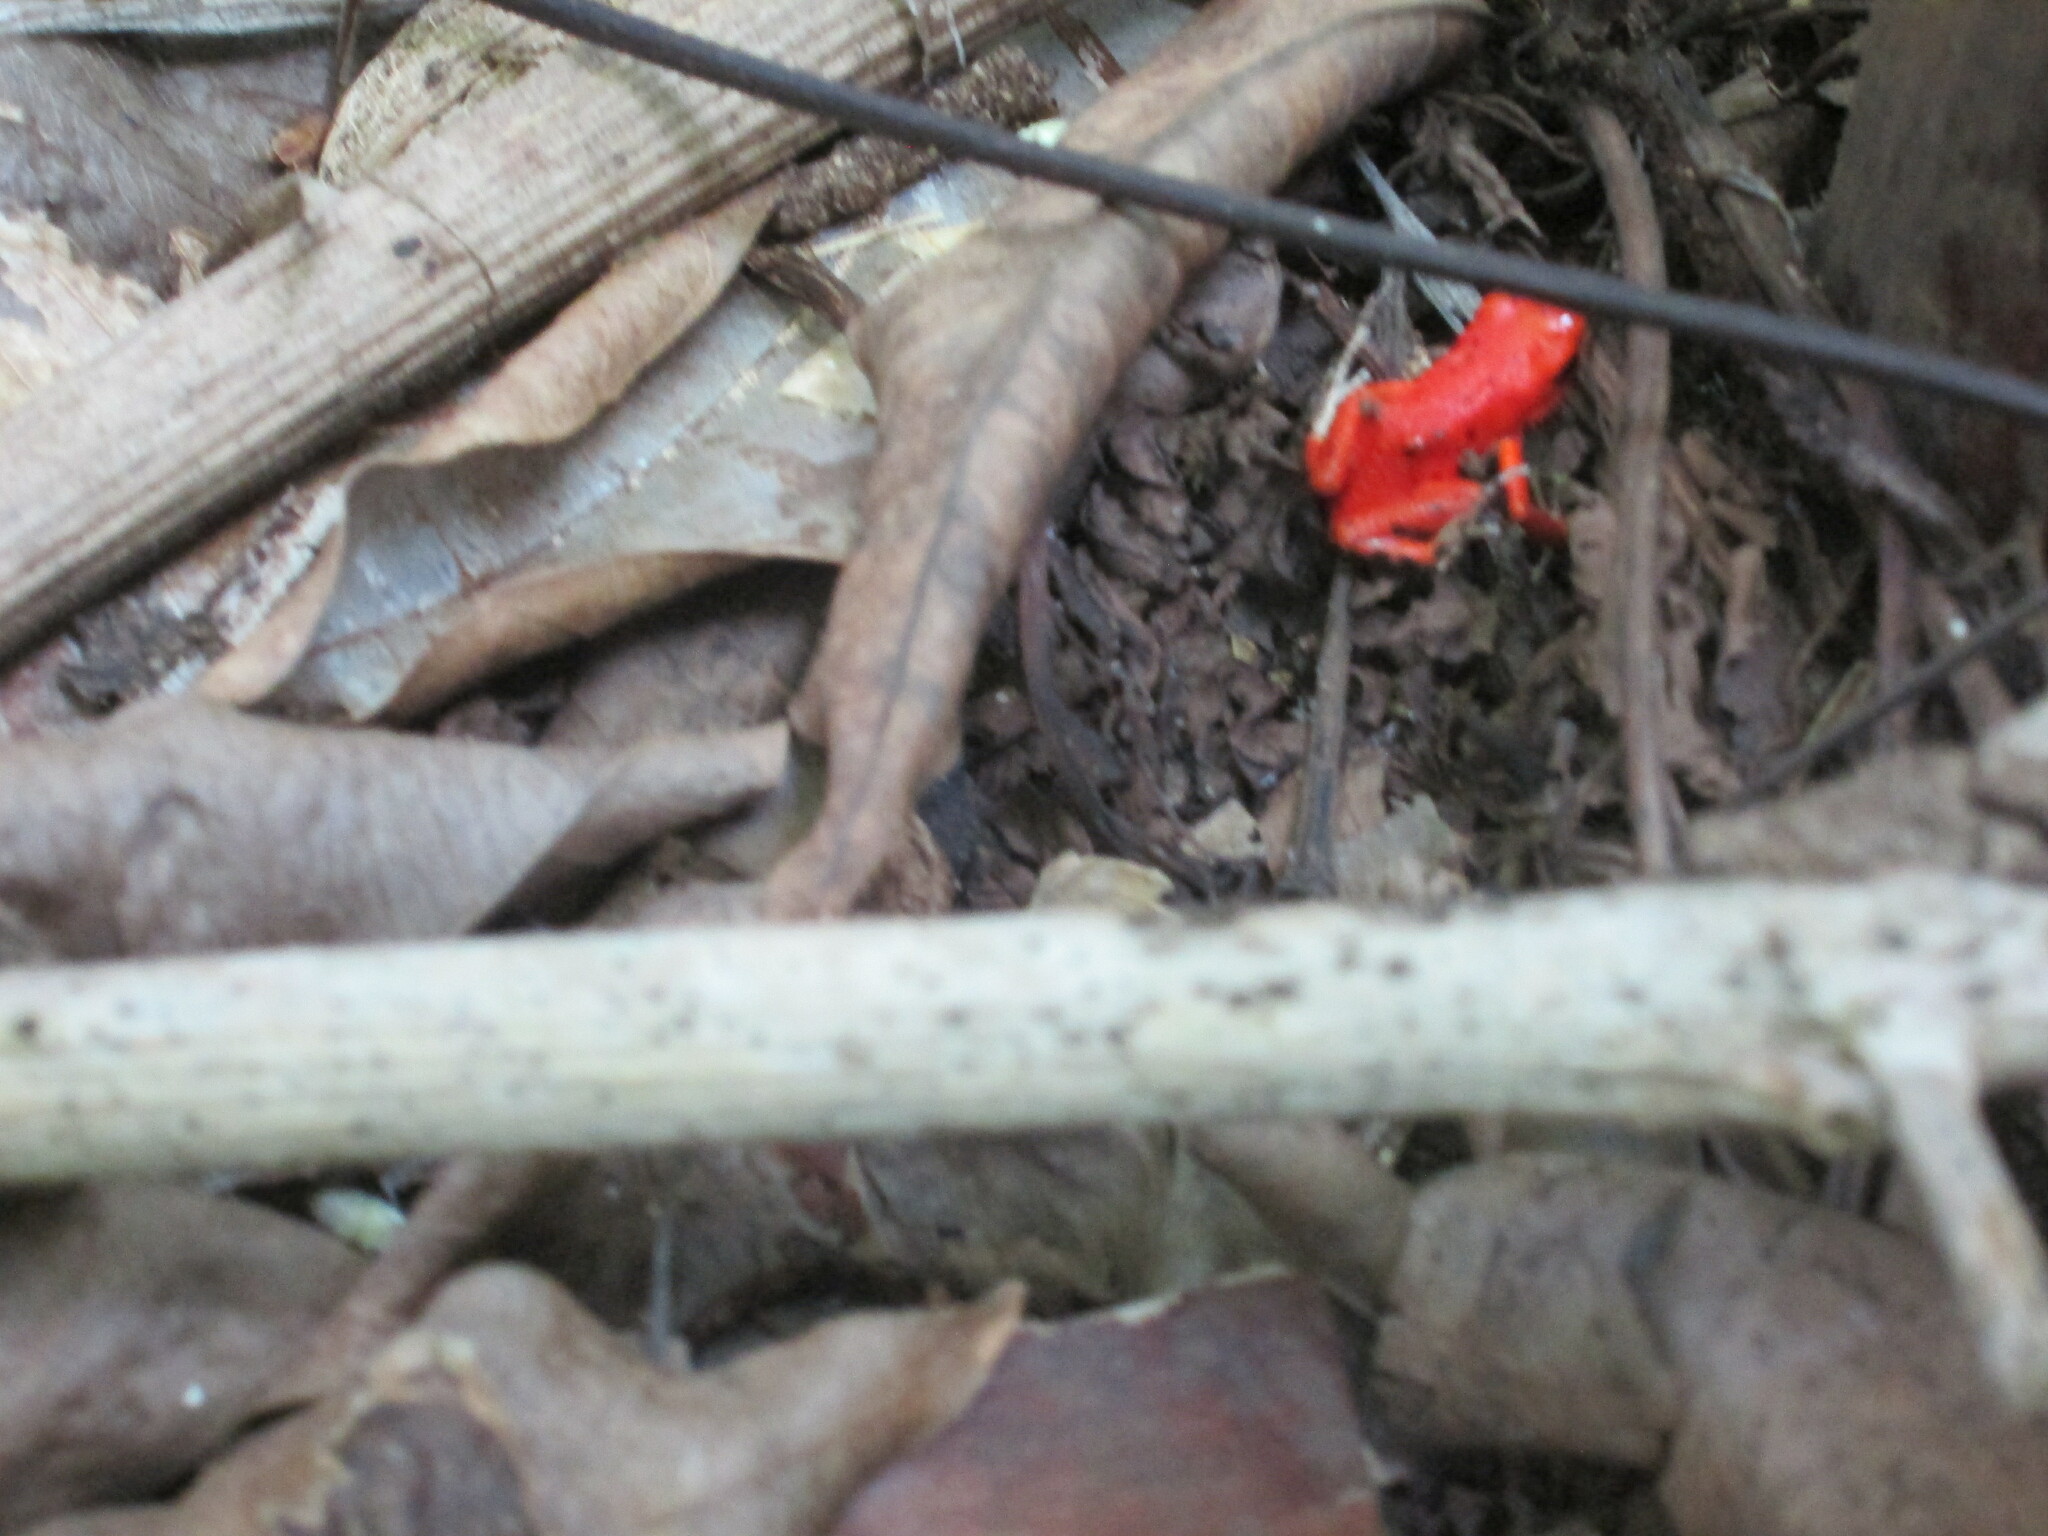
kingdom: Animalia
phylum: Chordata
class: Amphibia
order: Anura
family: Dendrobatidae
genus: Oophaga
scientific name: Oophaga pumilio
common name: Flaming poison frog
